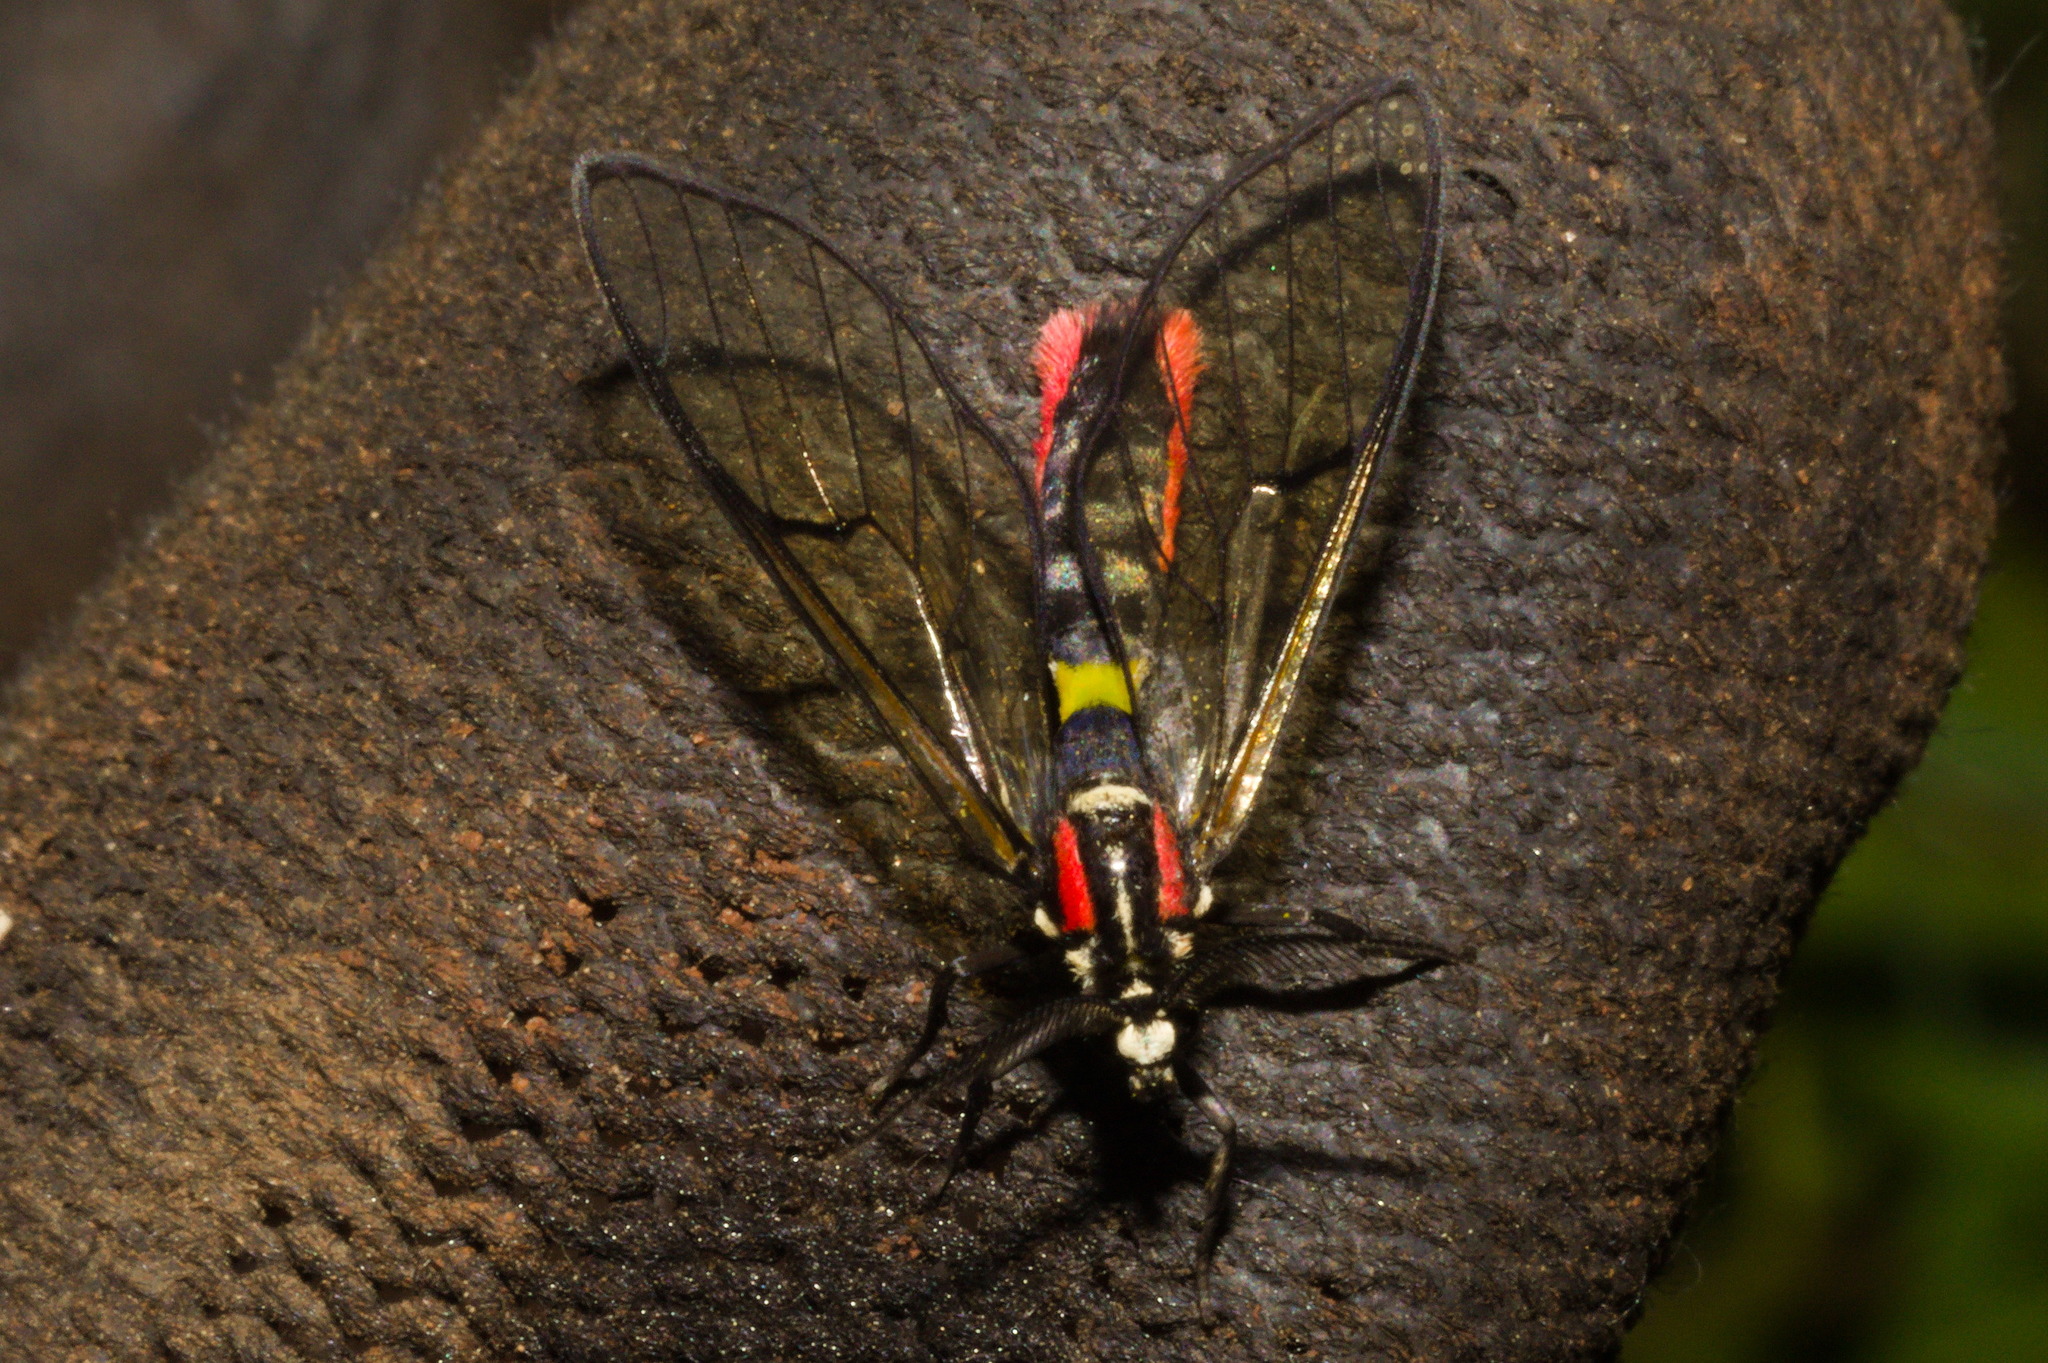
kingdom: Animalia
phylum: Arthropoda
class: Insecta
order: Lepidoptera
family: Erebidae
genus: Argyroeides
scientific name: Argyroeides braco
